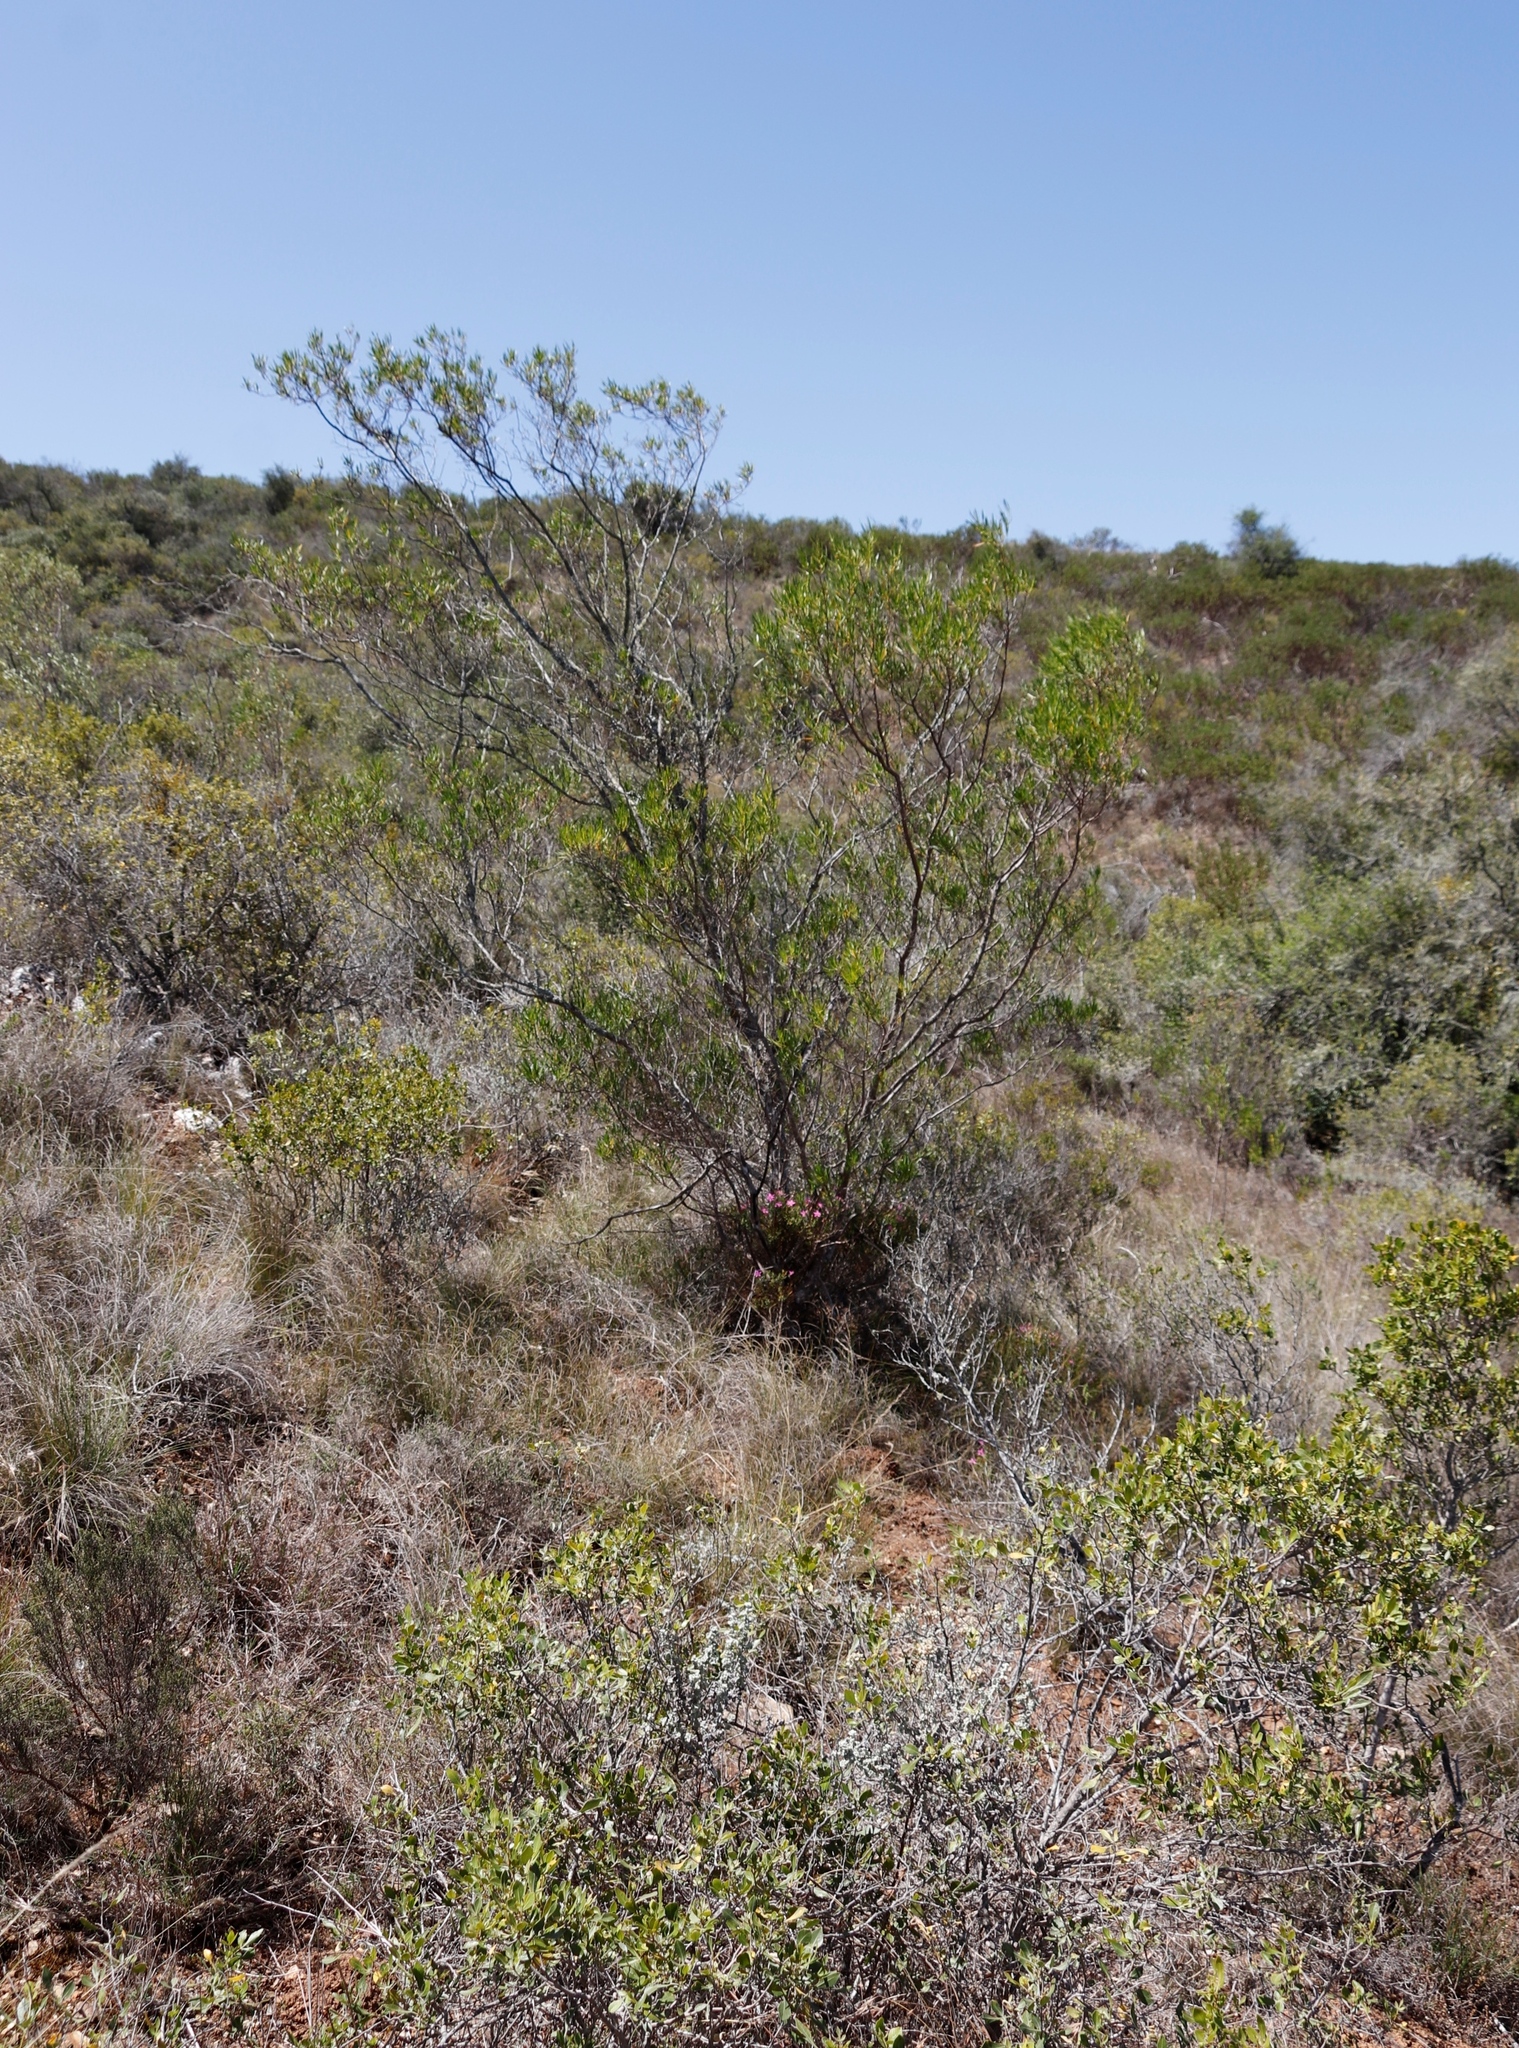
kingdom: Plantae
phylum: Tracheophyta
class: Magnoliopsida
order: Sapindales
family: Sapindaceae
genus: Dodonaea
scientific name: Dodonaea viscosa
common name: Hopbush
